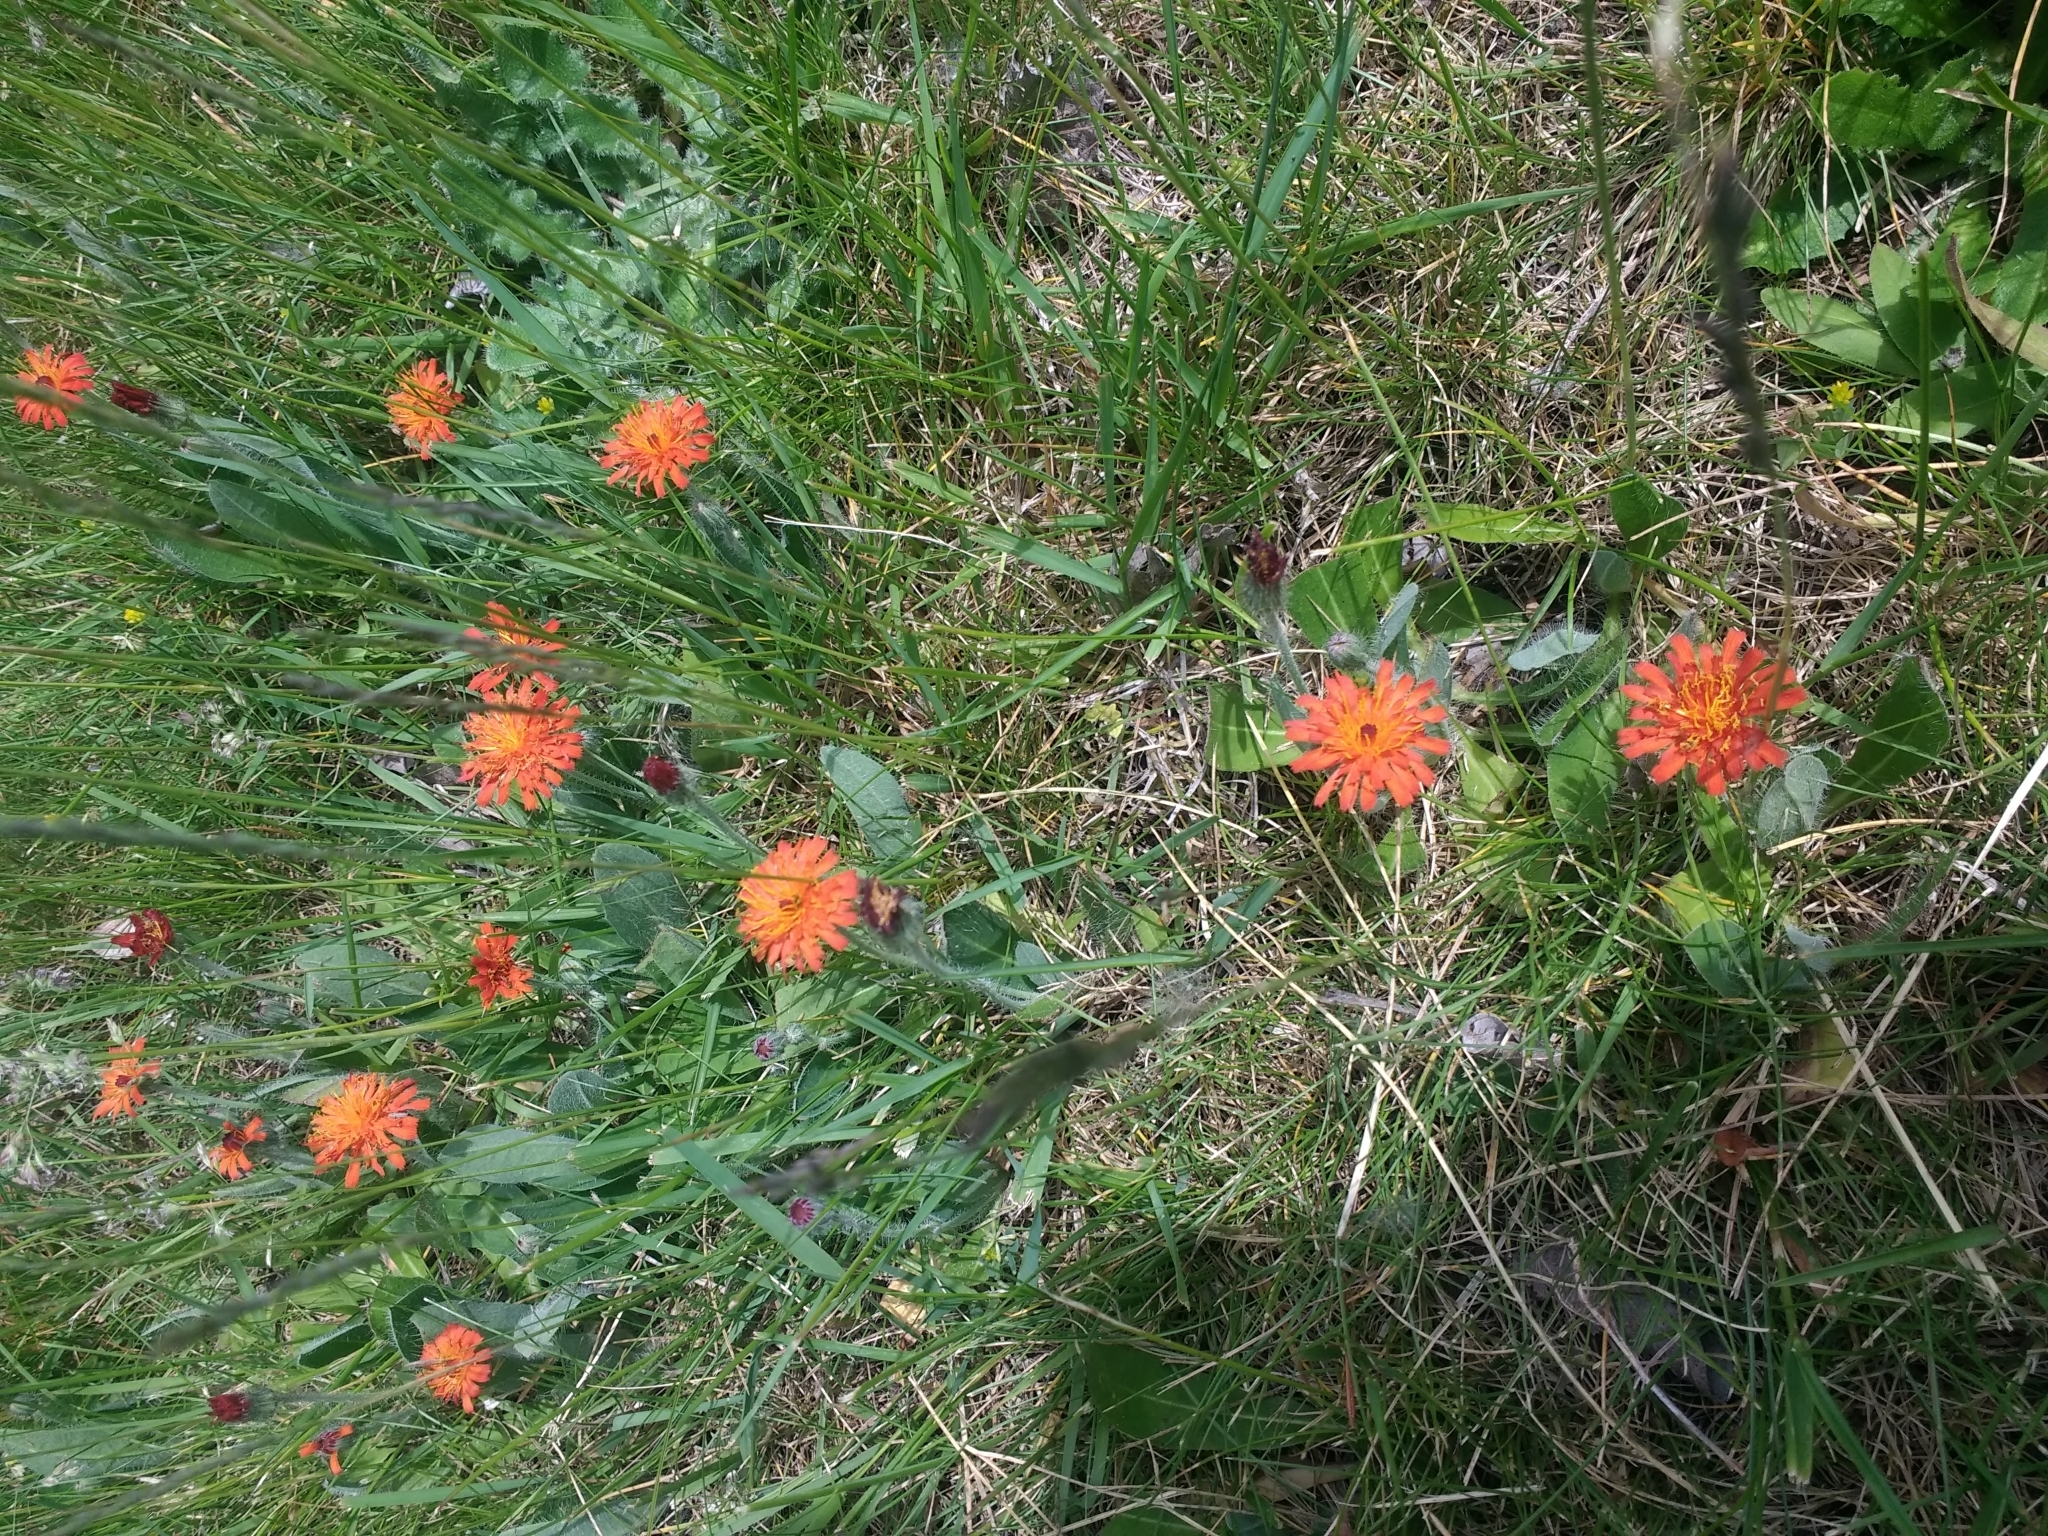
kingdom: Plantae
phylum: Tracheophyta
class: Magnoliopsida
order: Asterales
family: Asteraceae
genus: Pilosella
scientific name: Pilosella aurantiaca
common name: Fox-and-cubs
